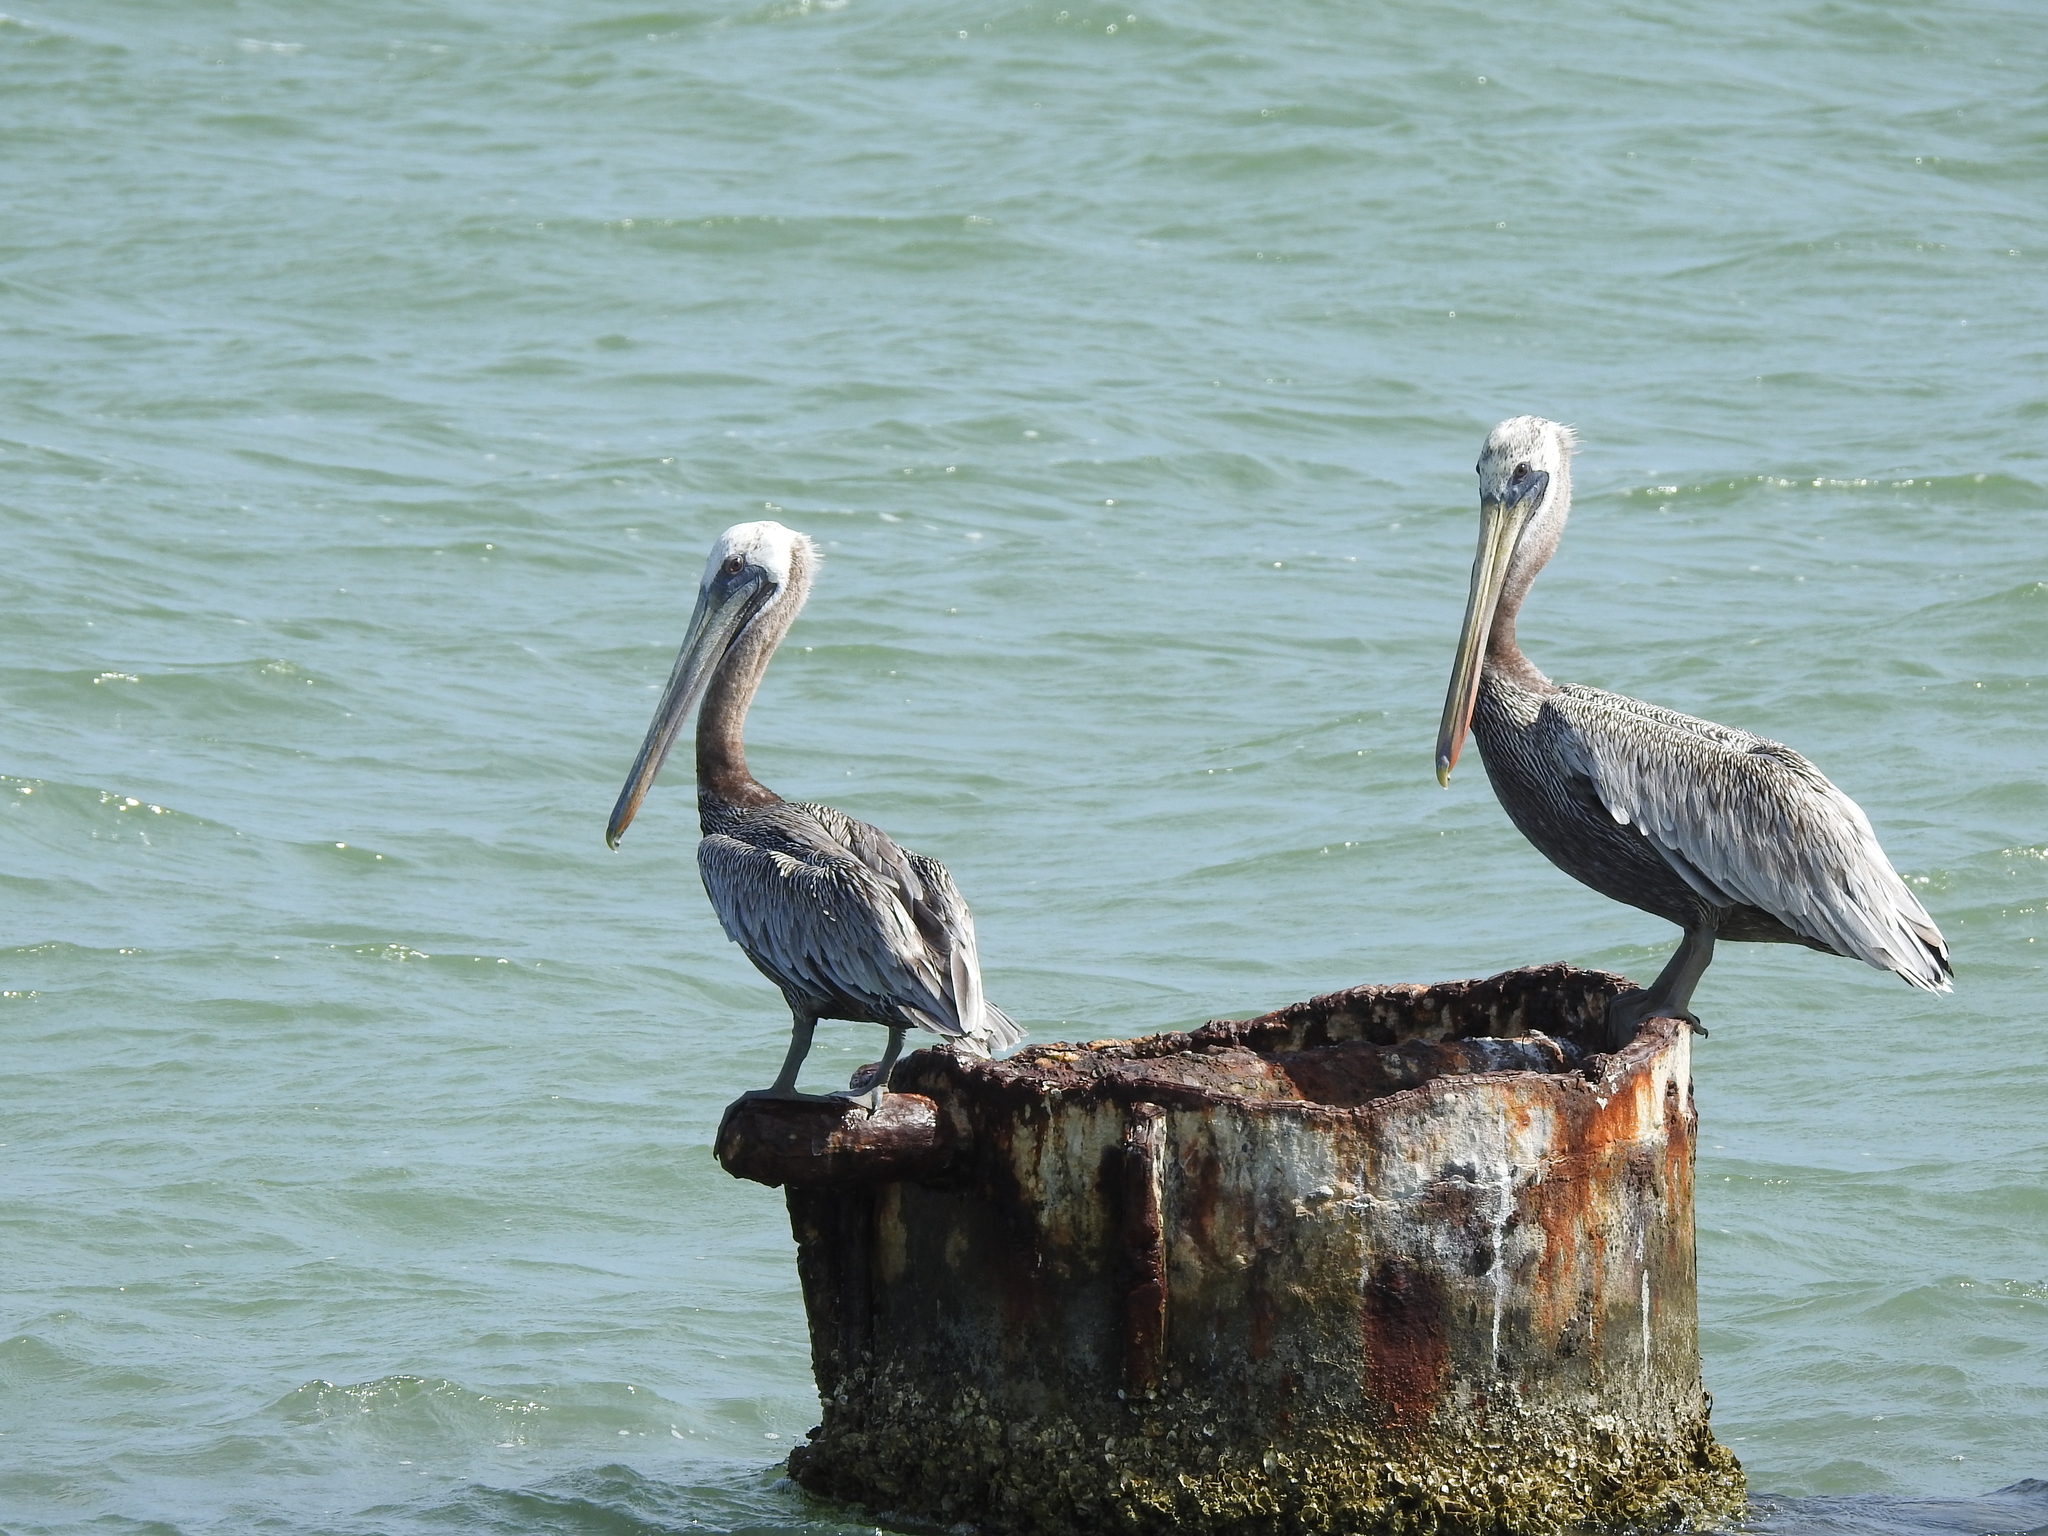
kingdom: Animalia
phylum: Chordata
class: Aves
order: Pelecaniformes
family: Pelecanidae
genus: Pelecanus
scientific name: Pelecanus occidentalis
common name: Brown pelican
